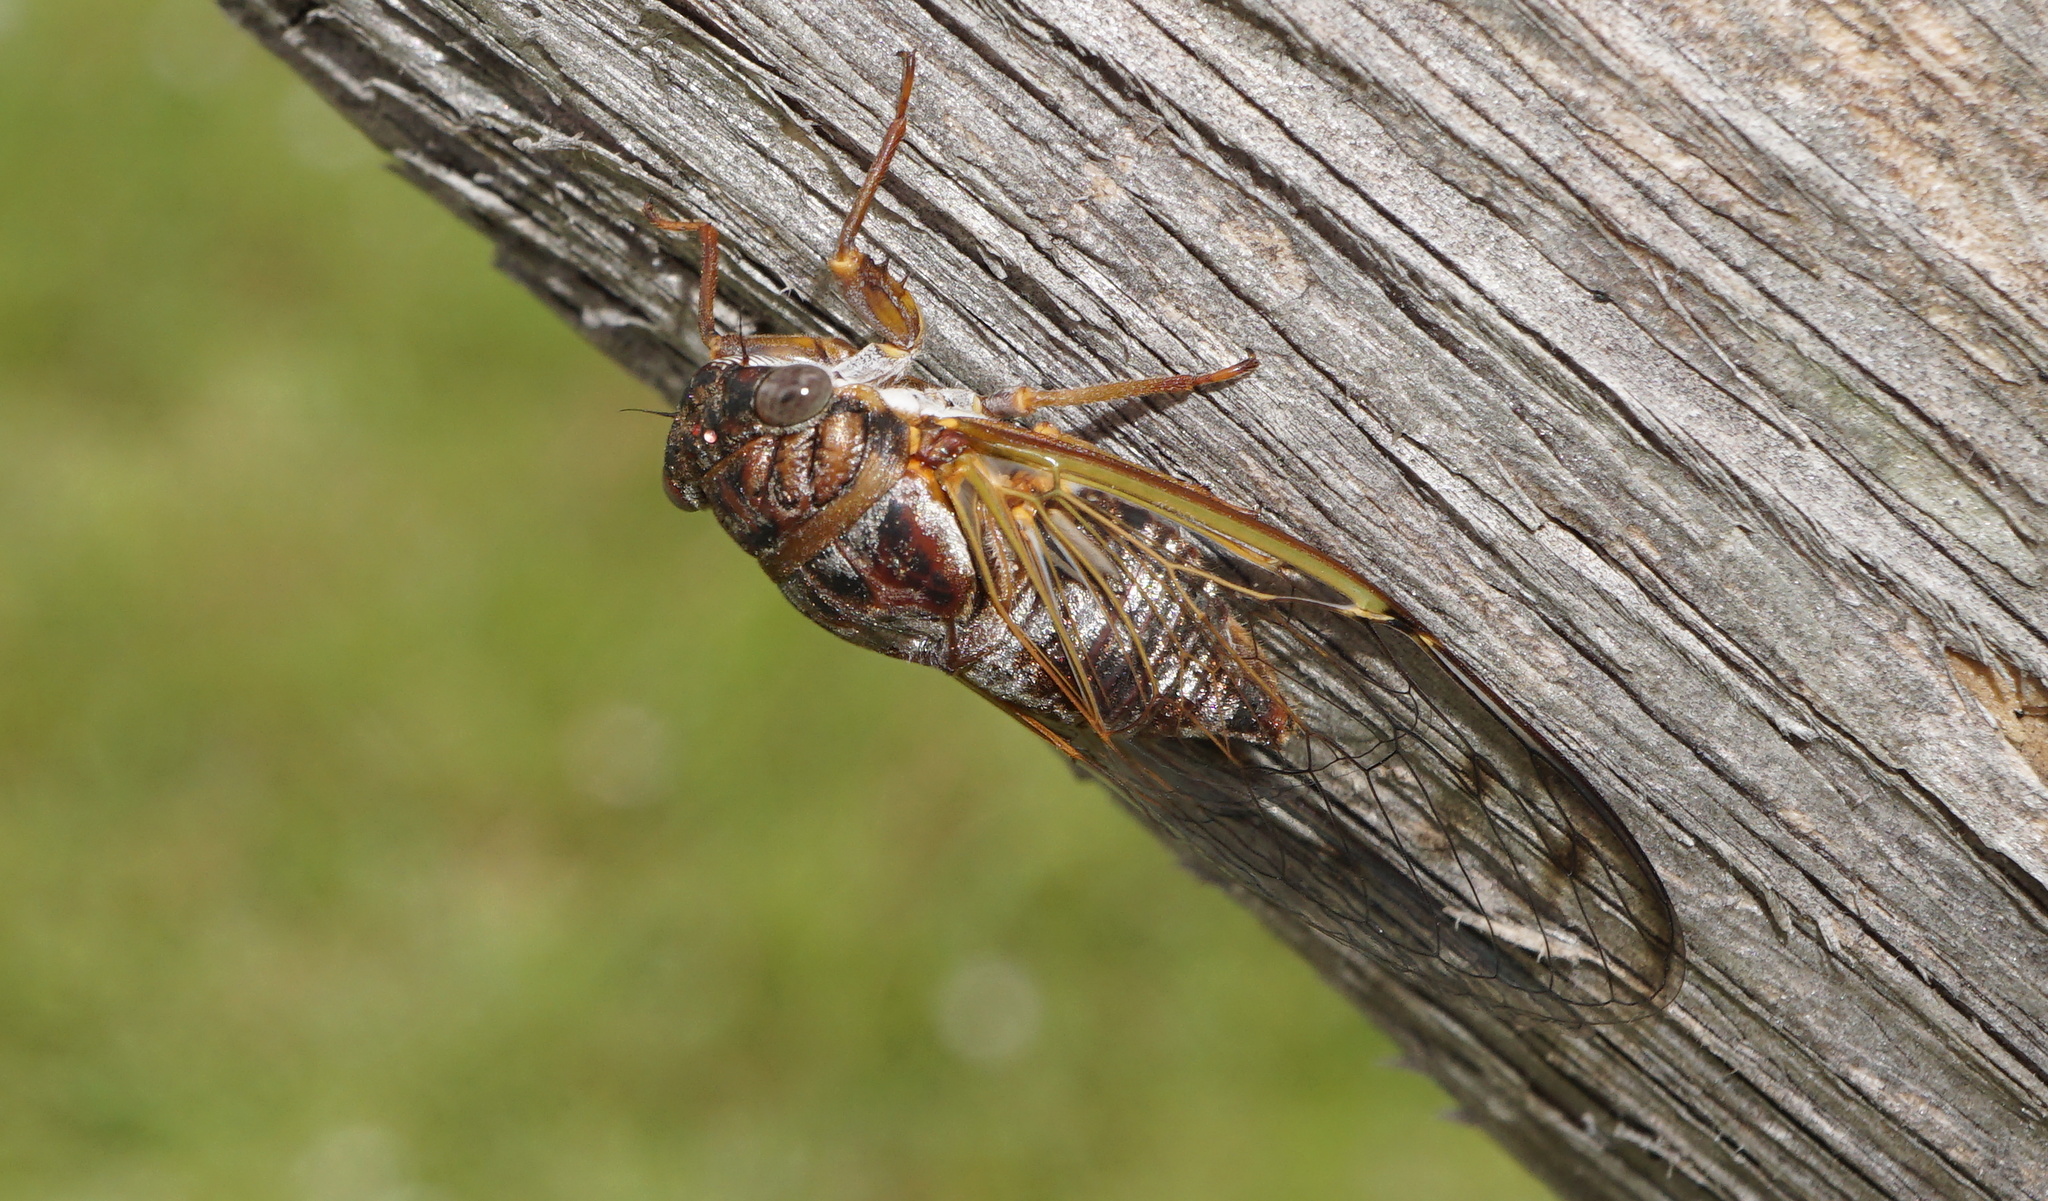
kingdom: Animalia
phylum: Arthropoda
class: Insecta
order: Hemiptera
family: Cicadidae
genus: Diceroprocta
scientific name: Diceroprocta olympusa
